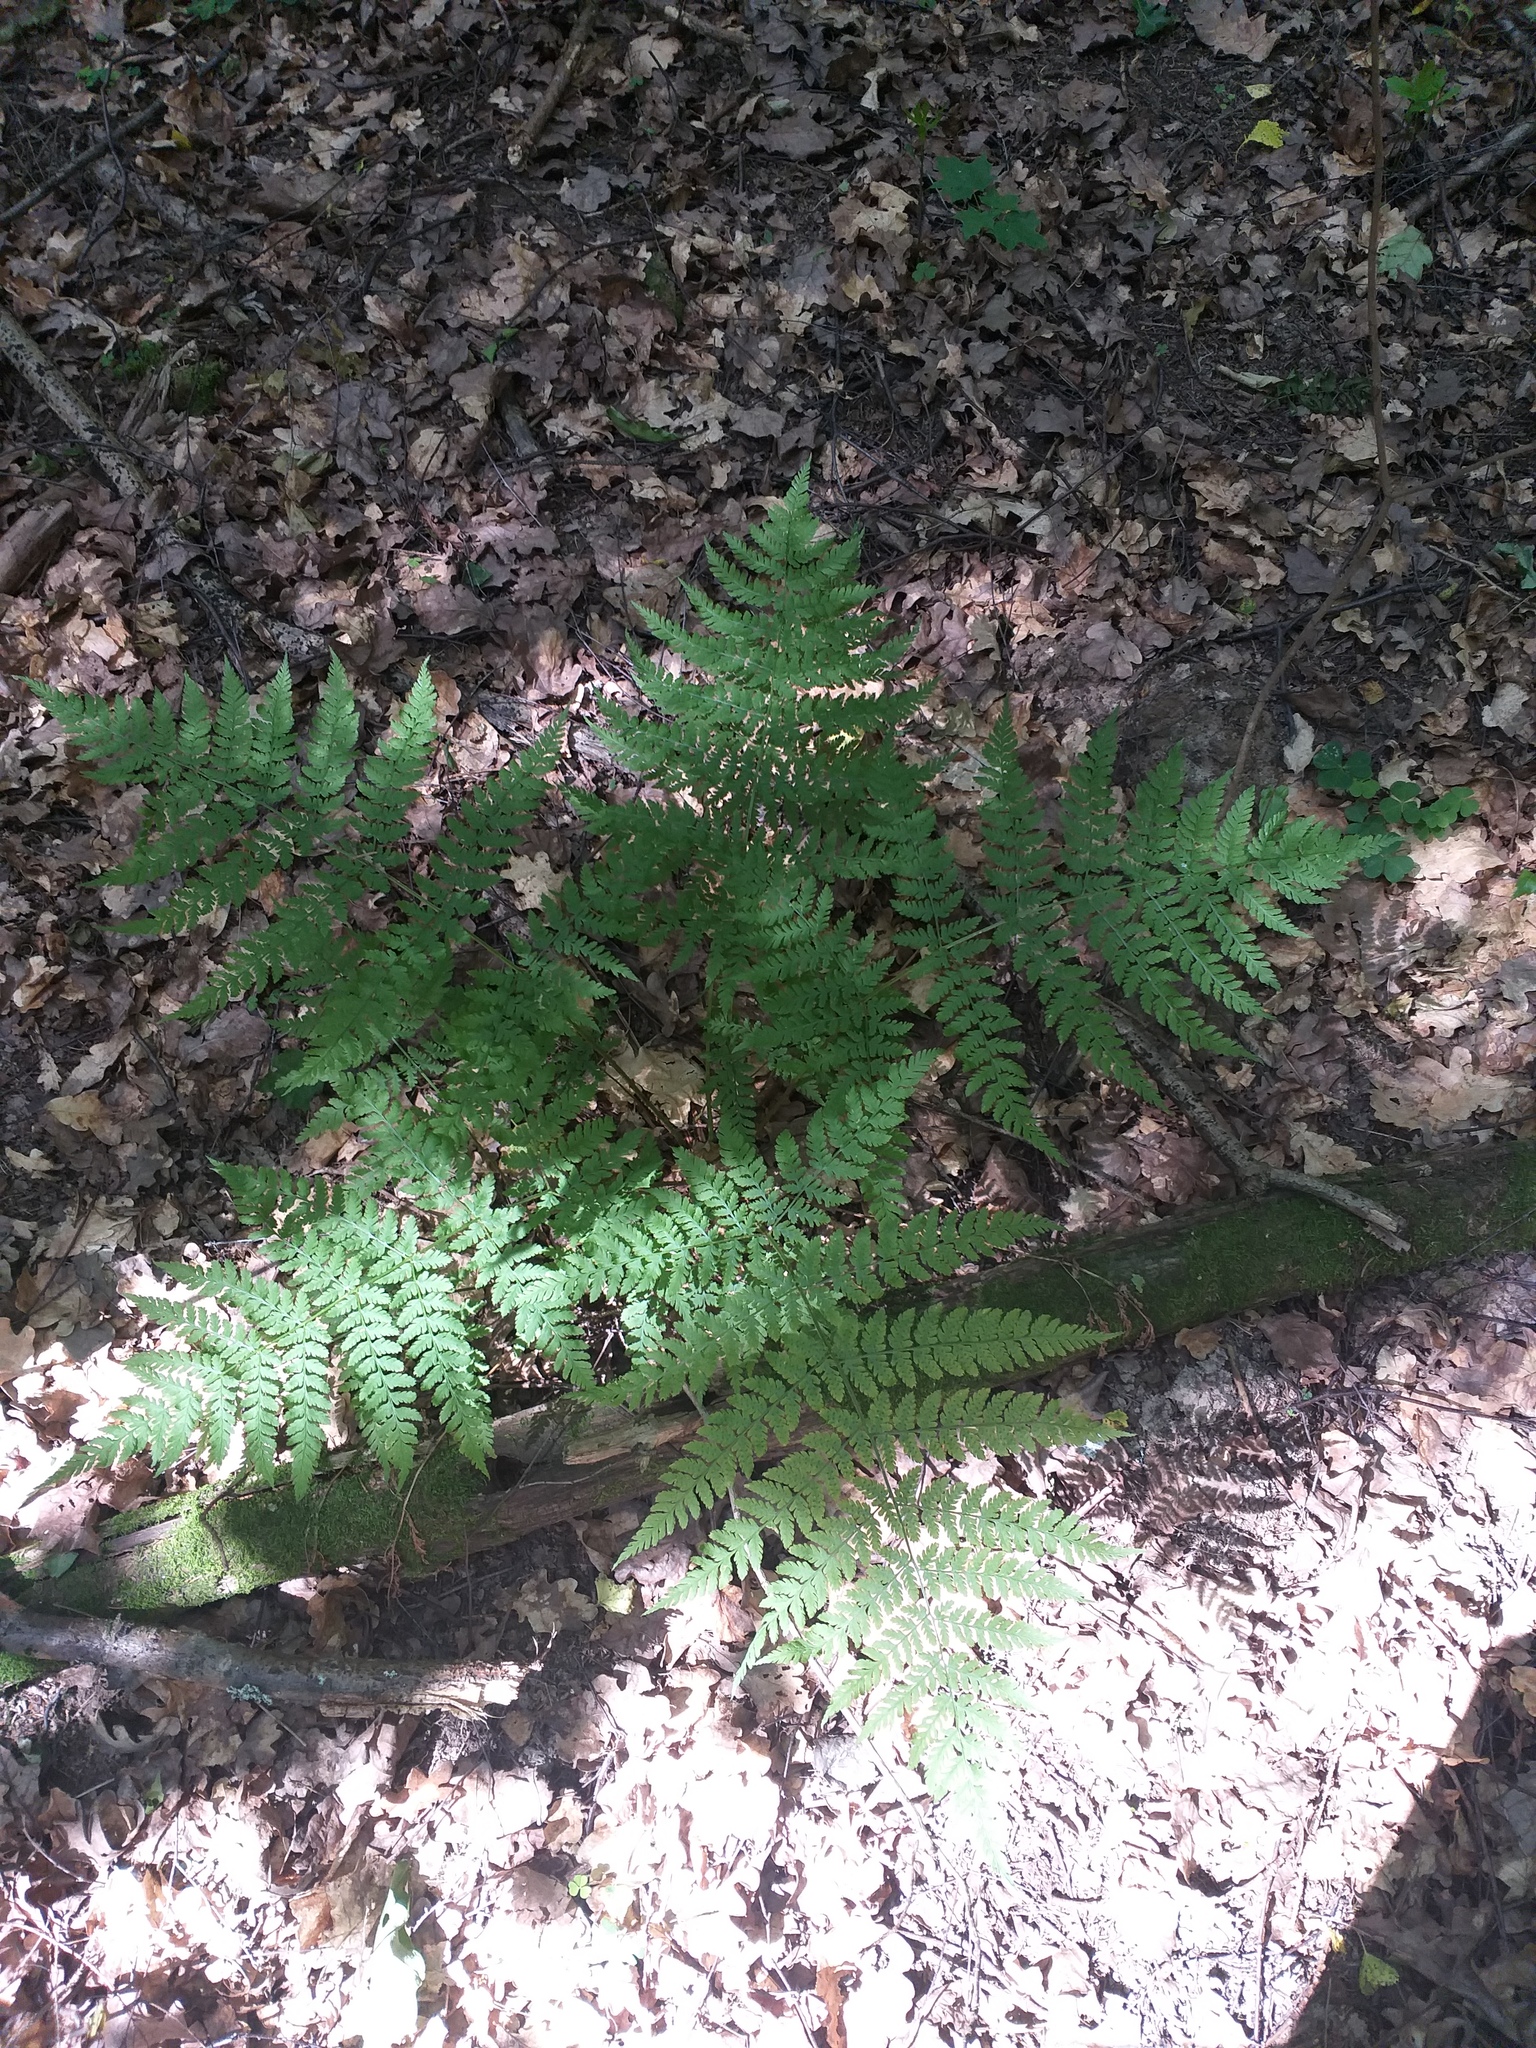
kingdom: Plantae
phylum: Tracheophyta
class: Polypodiopsida
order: Polypodiales
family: Dryopteridaceae
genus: Dryopteris
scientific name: Dryopteris expansa
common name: Northern buckler fern
